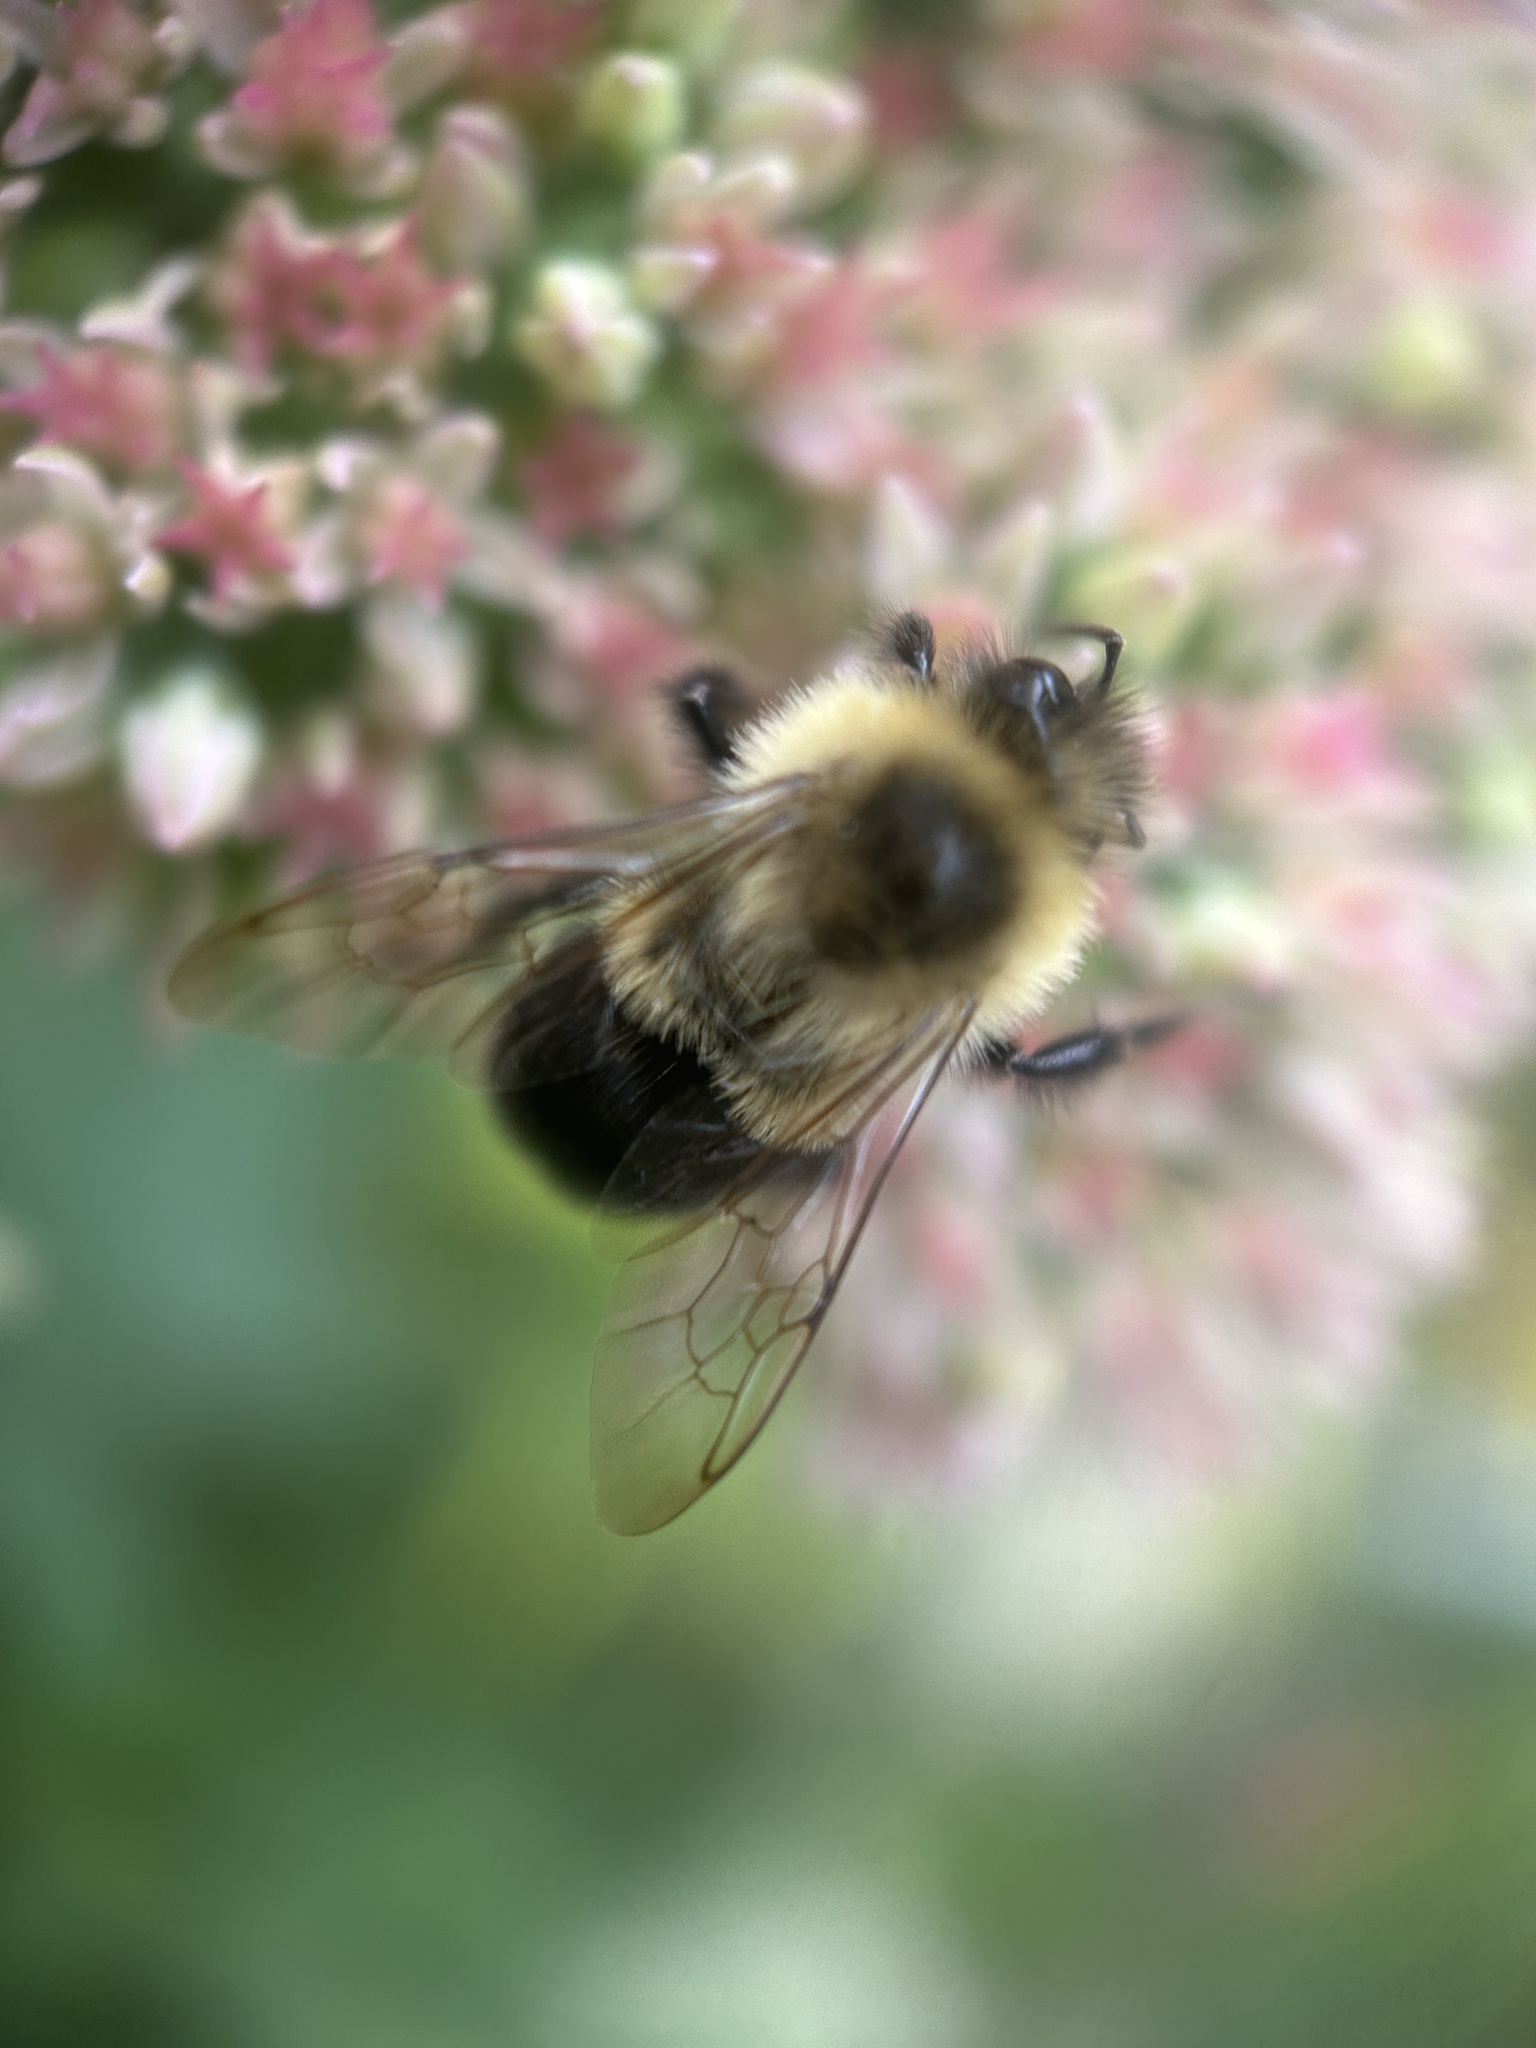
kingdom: Animalia
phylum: Arthropoda
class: Insecta
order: Hymenoptera
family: Apidae
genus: Bombus
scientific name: Bombus impatiens
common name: Common eastern bumble bee
